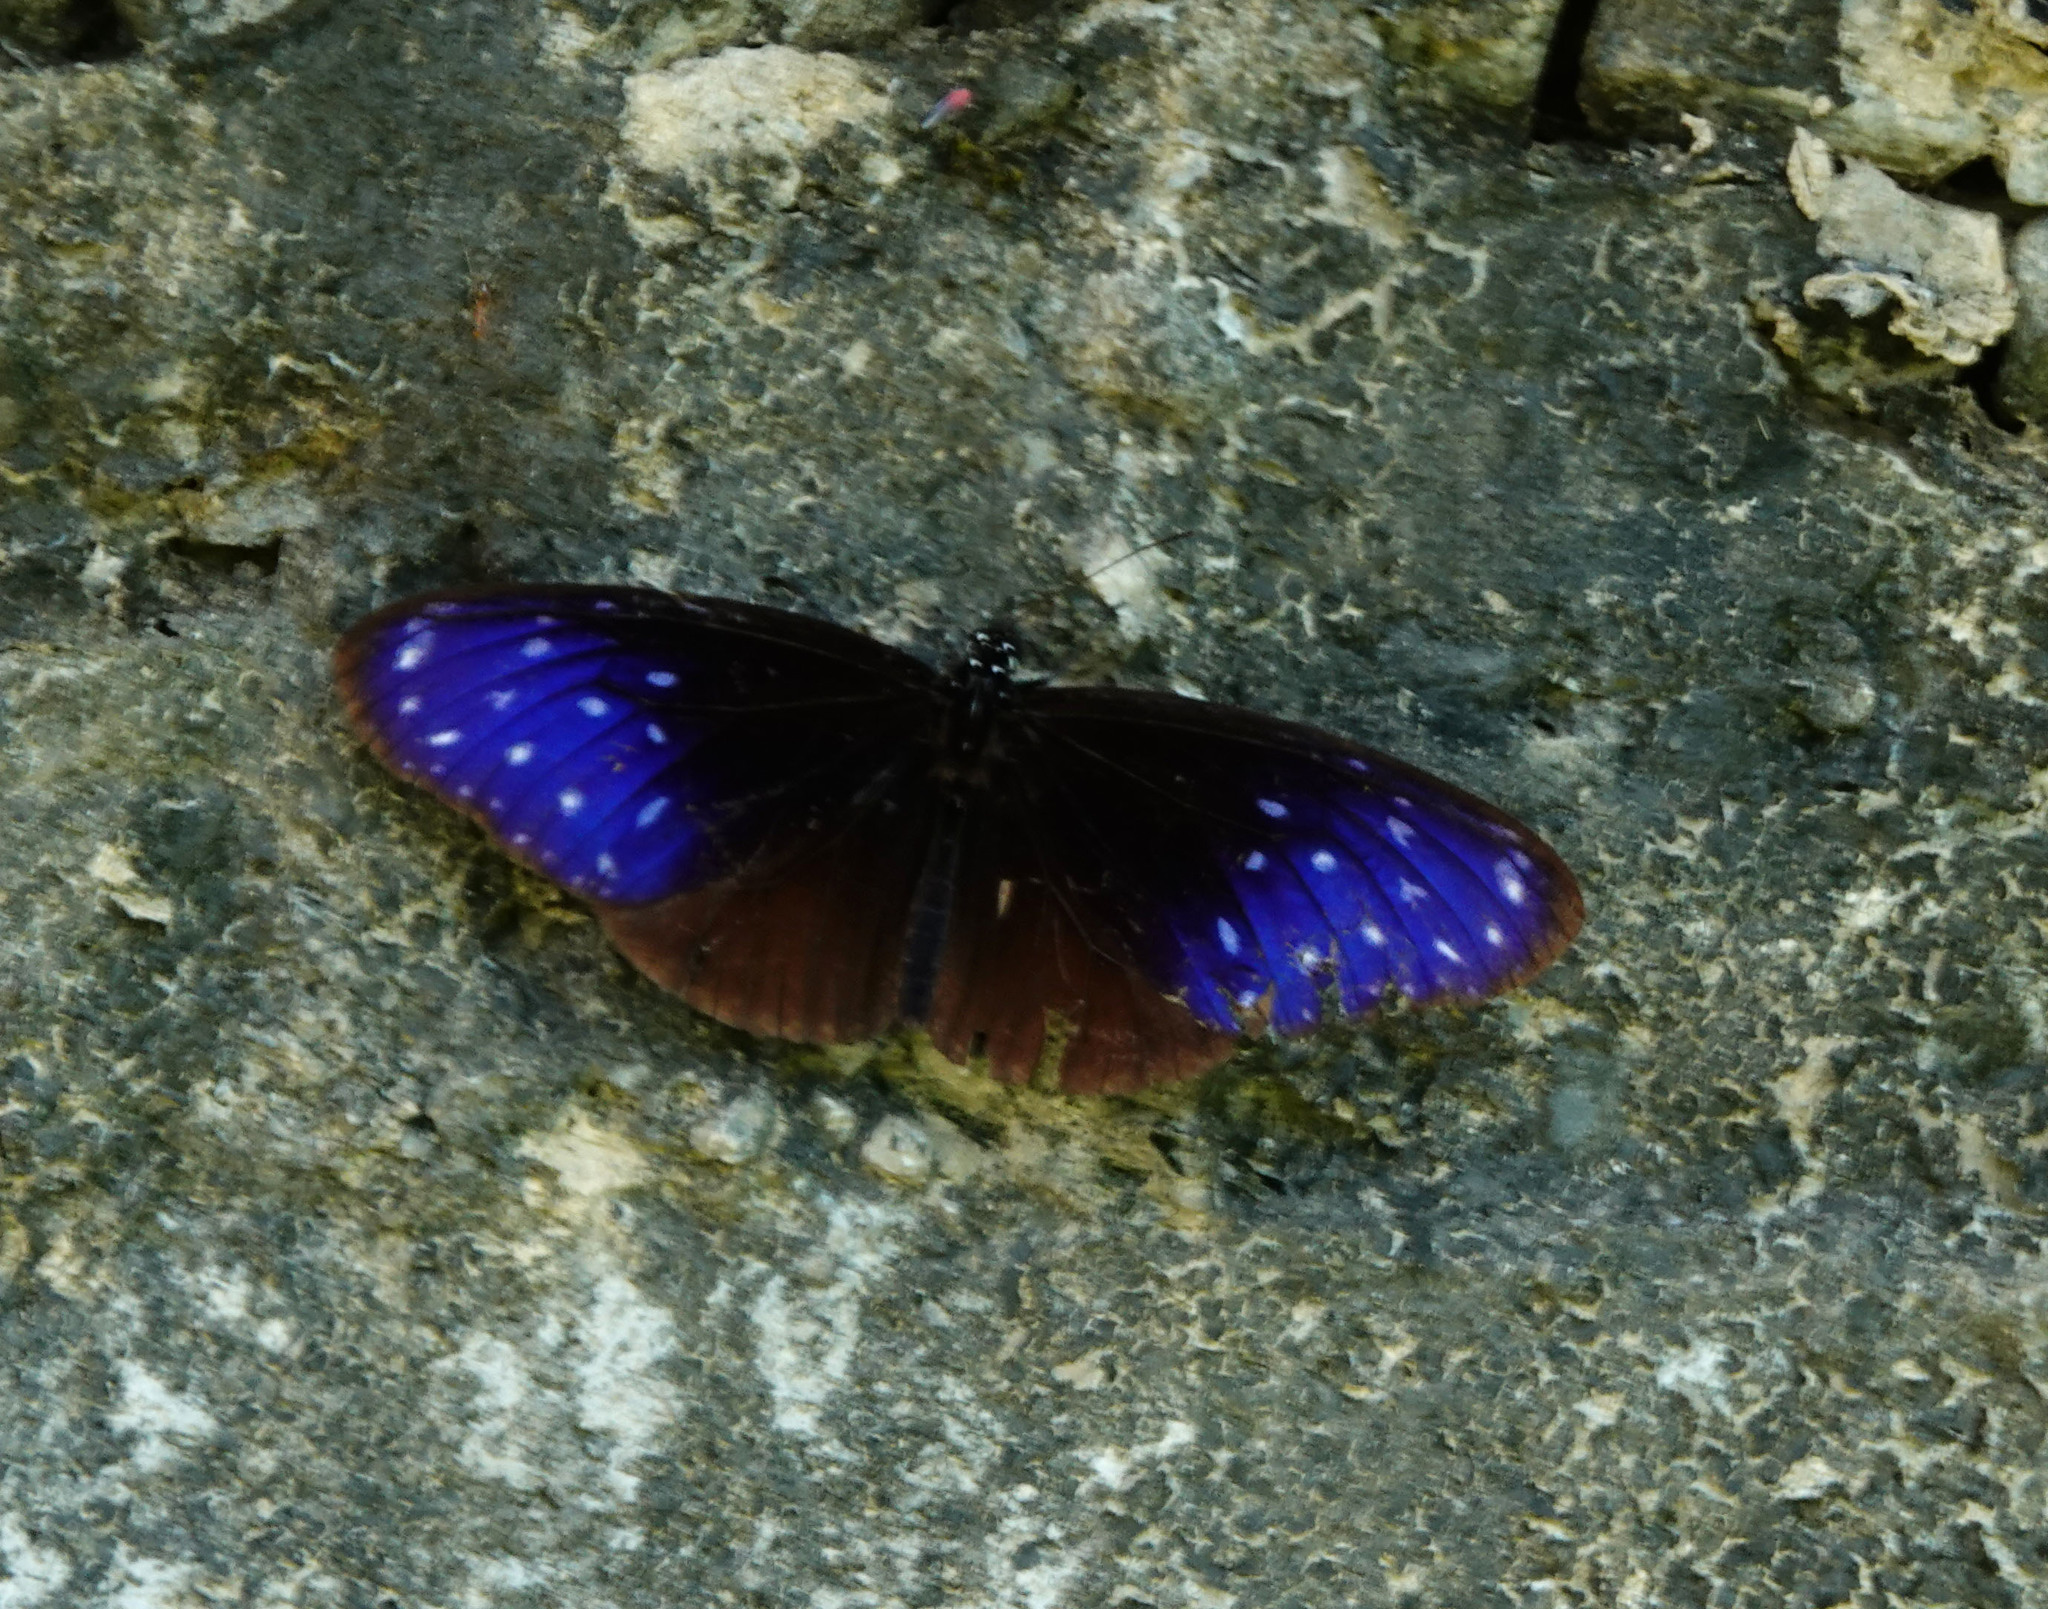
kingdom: Animalia
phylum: Arthropoda
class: Insecta
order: Lepidoptera
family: Nymphalidae
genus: Euploea
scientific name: Euploea midamus
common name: Blue-spotted crow butterfly
